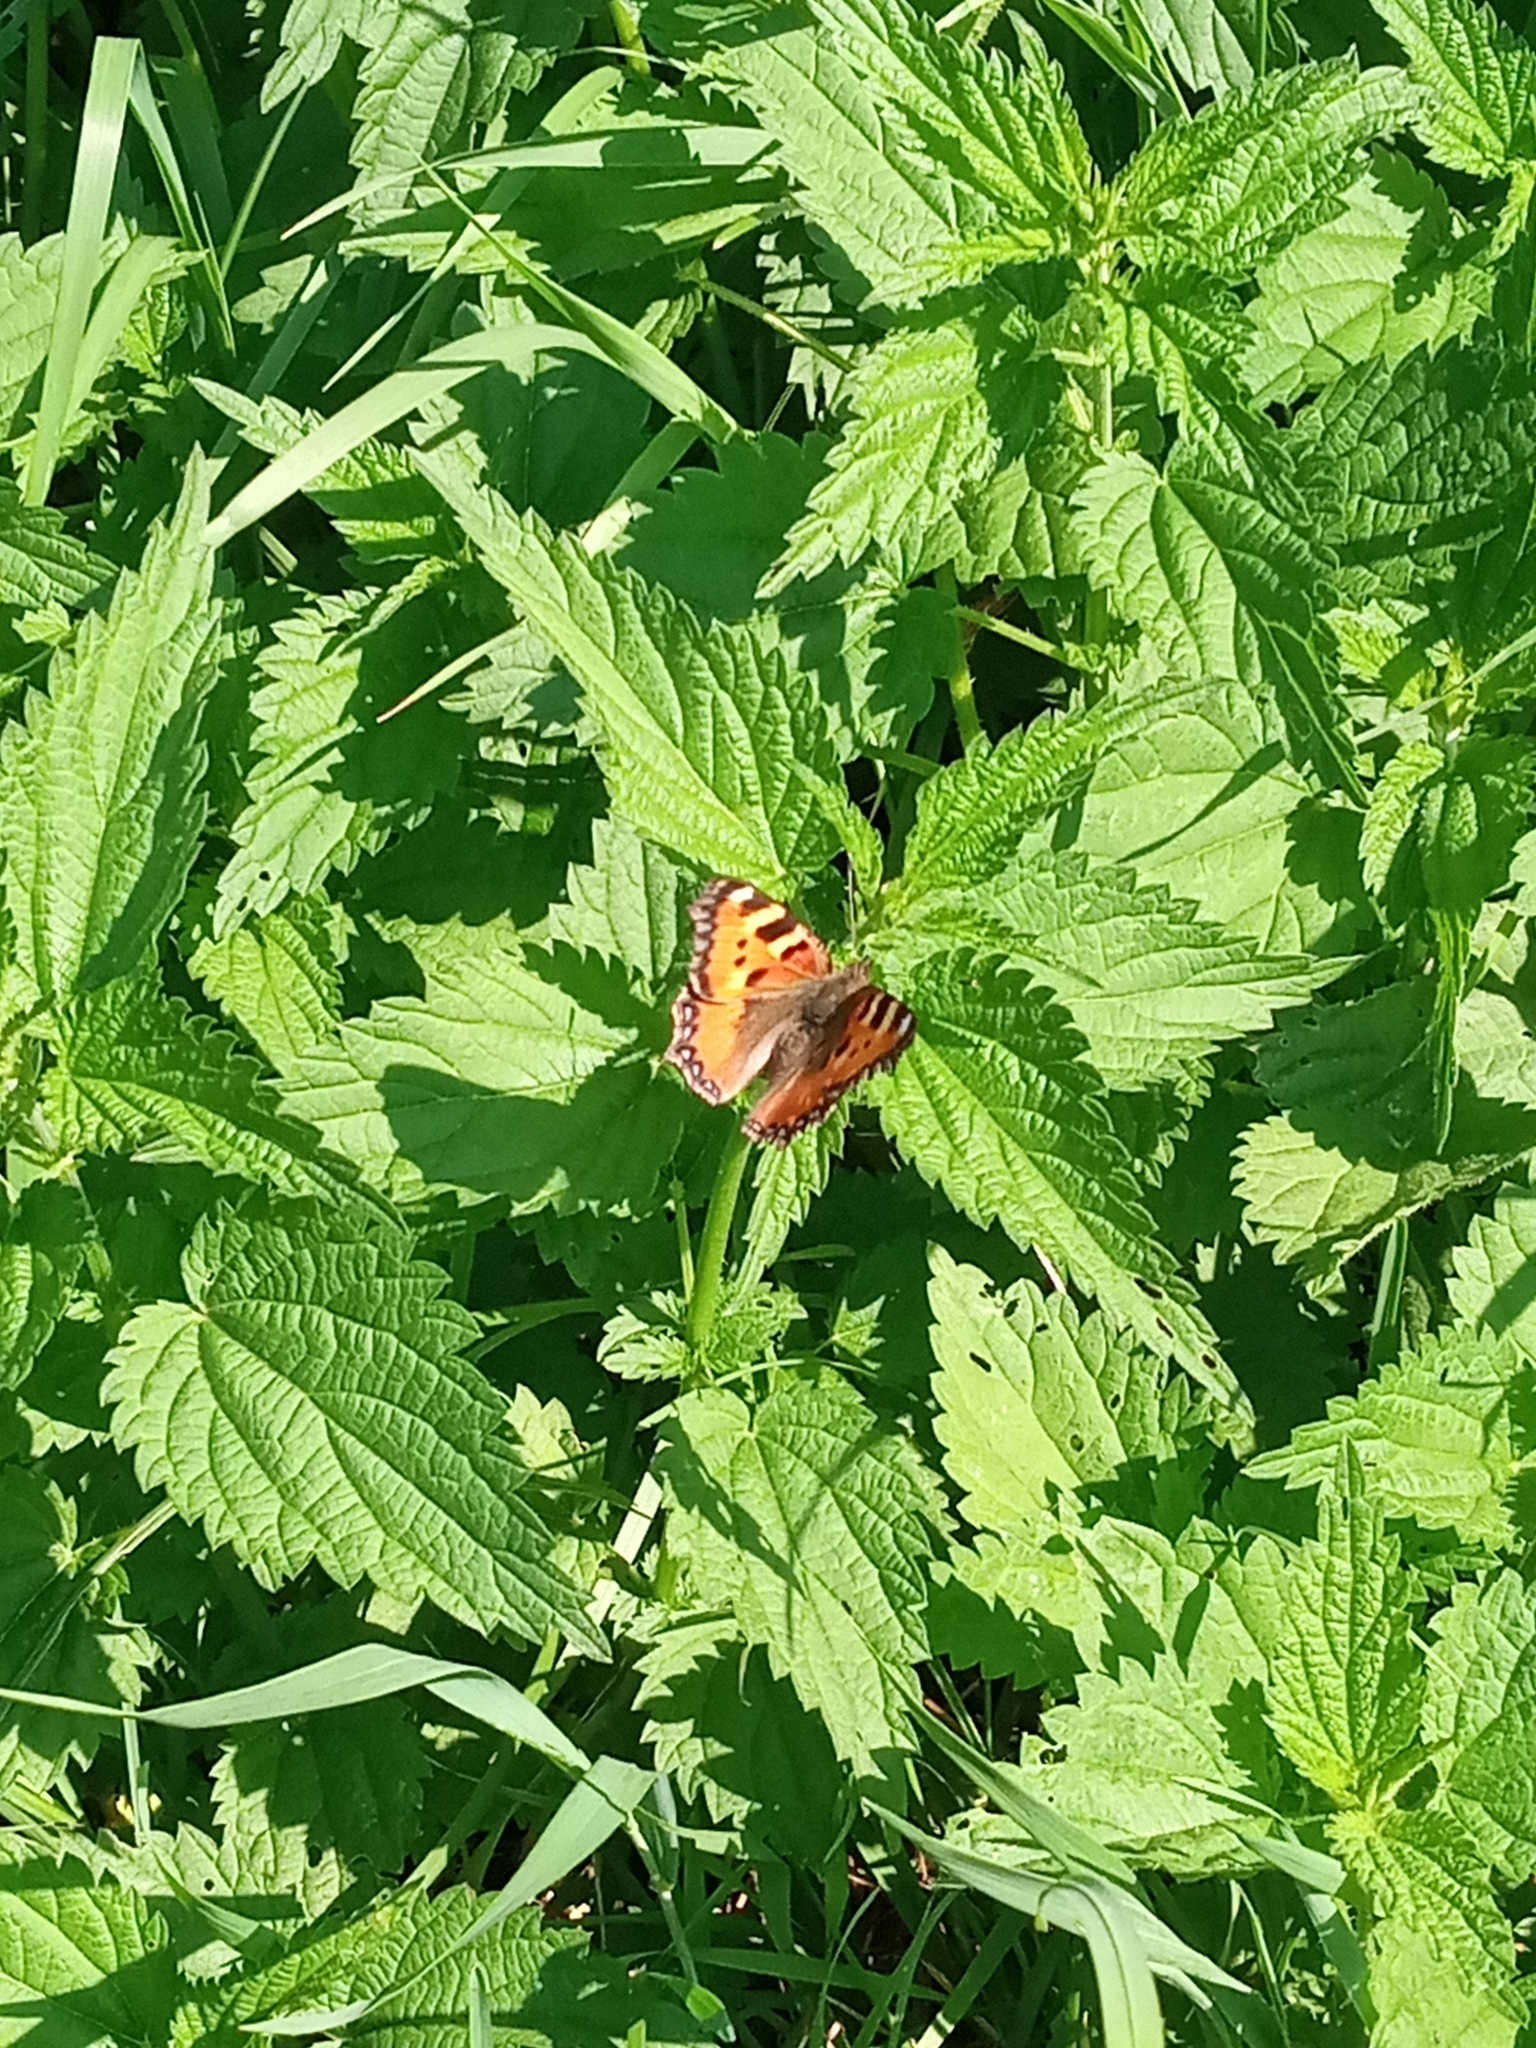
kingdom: Animalia
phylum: Arthropoda
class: Insecta
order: Lepidoptera
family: Nymphalidae
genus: Aglais
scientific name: Aglais urticae
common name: Small tortoiseshell
